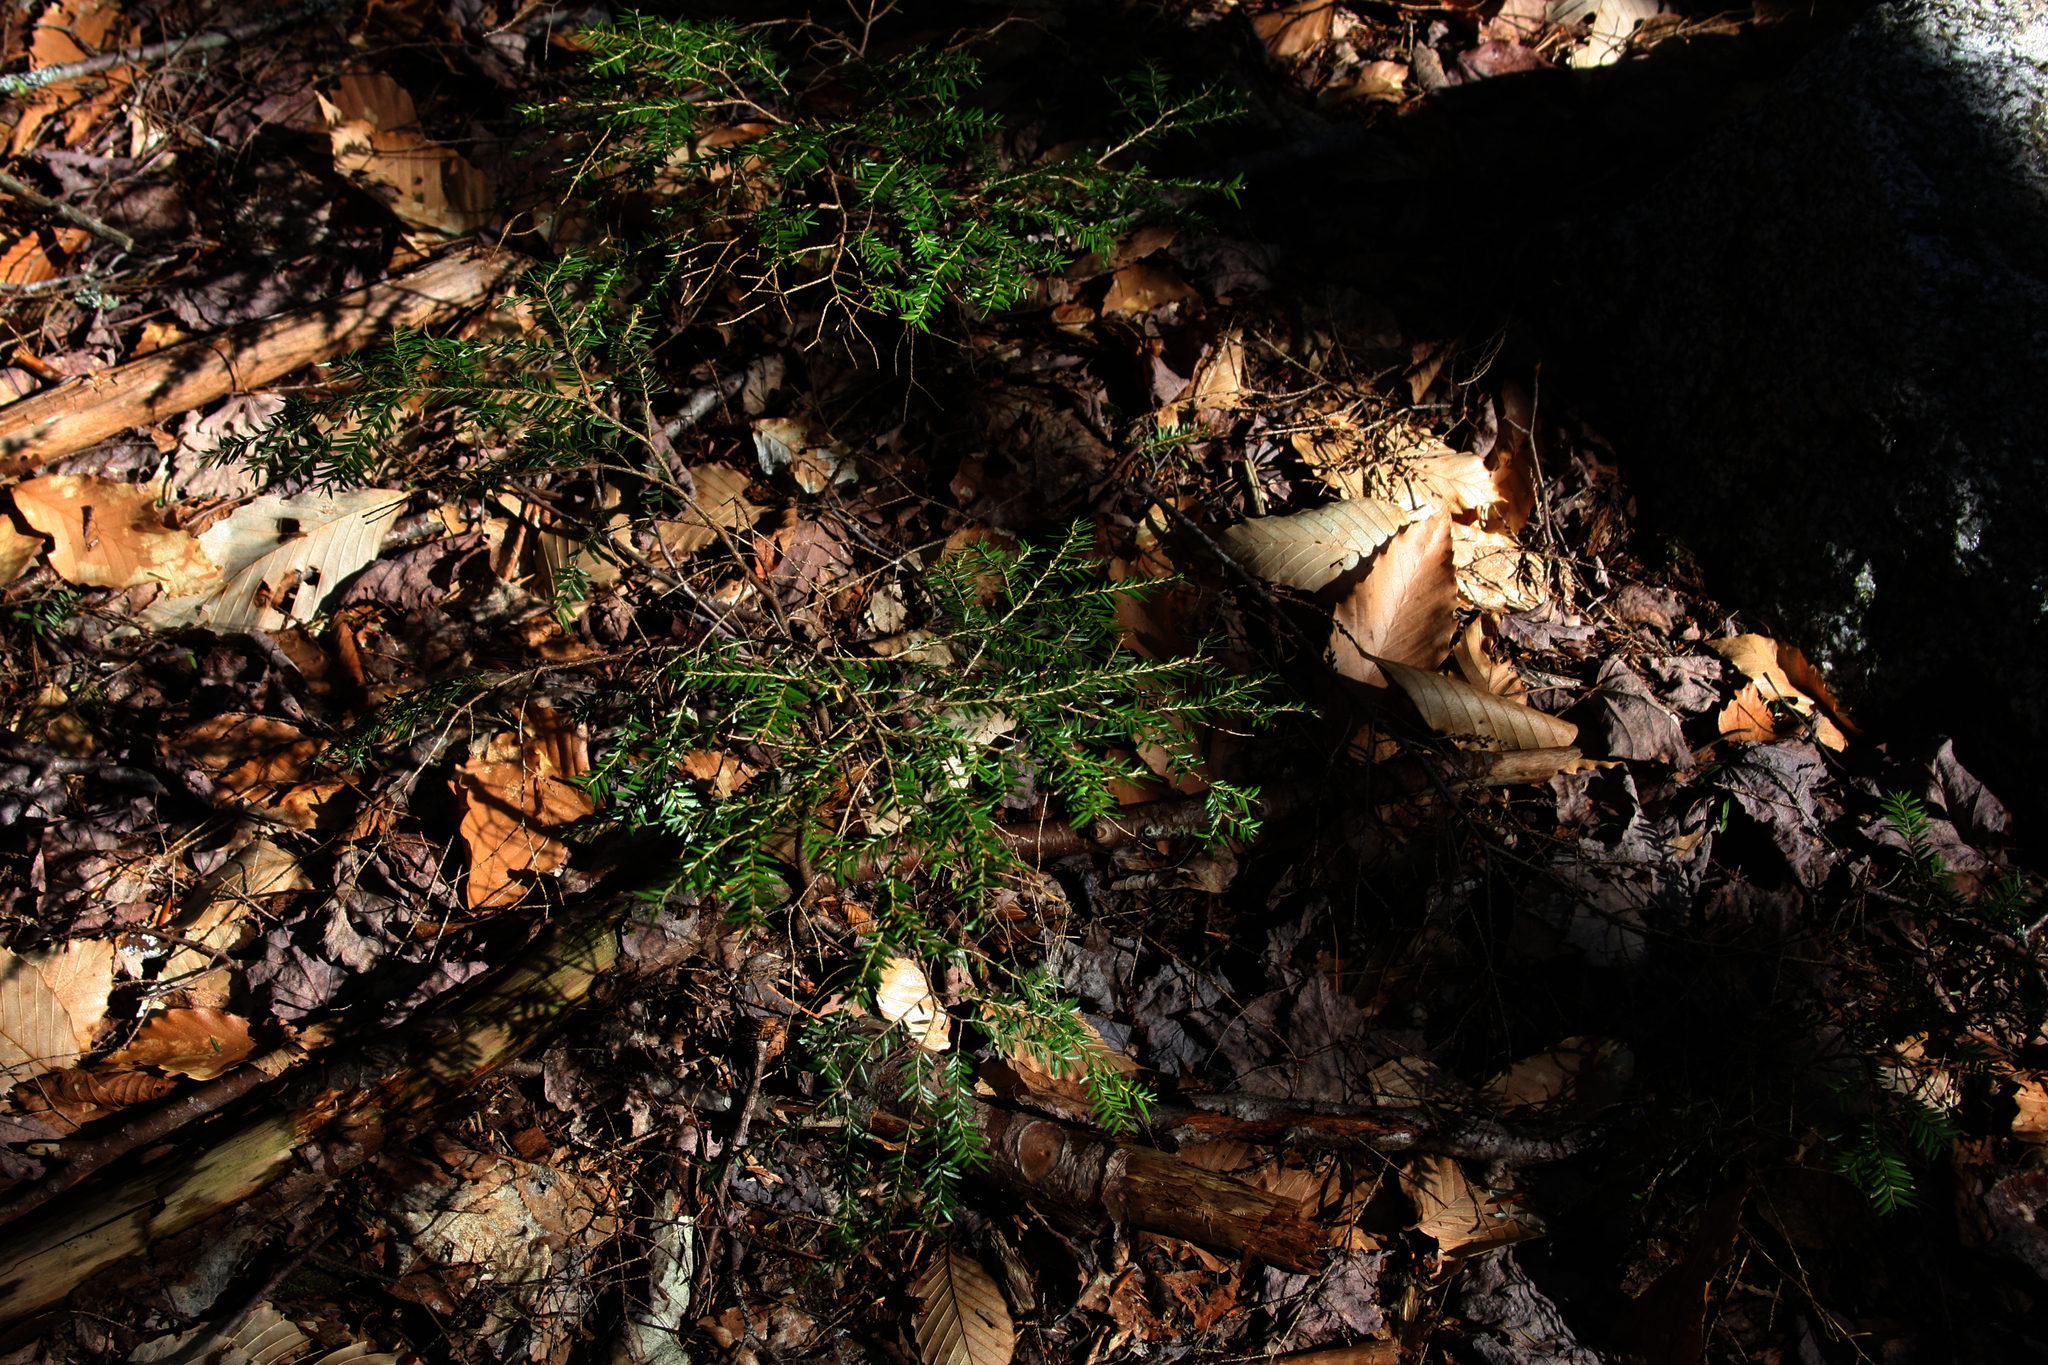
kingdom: Plantae
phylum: Tracheophyta
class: Pinopsida
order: Pinales
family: Pinaceae
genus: Tsuga
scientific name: Tsuga canadensis
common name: Eastern hemlock
